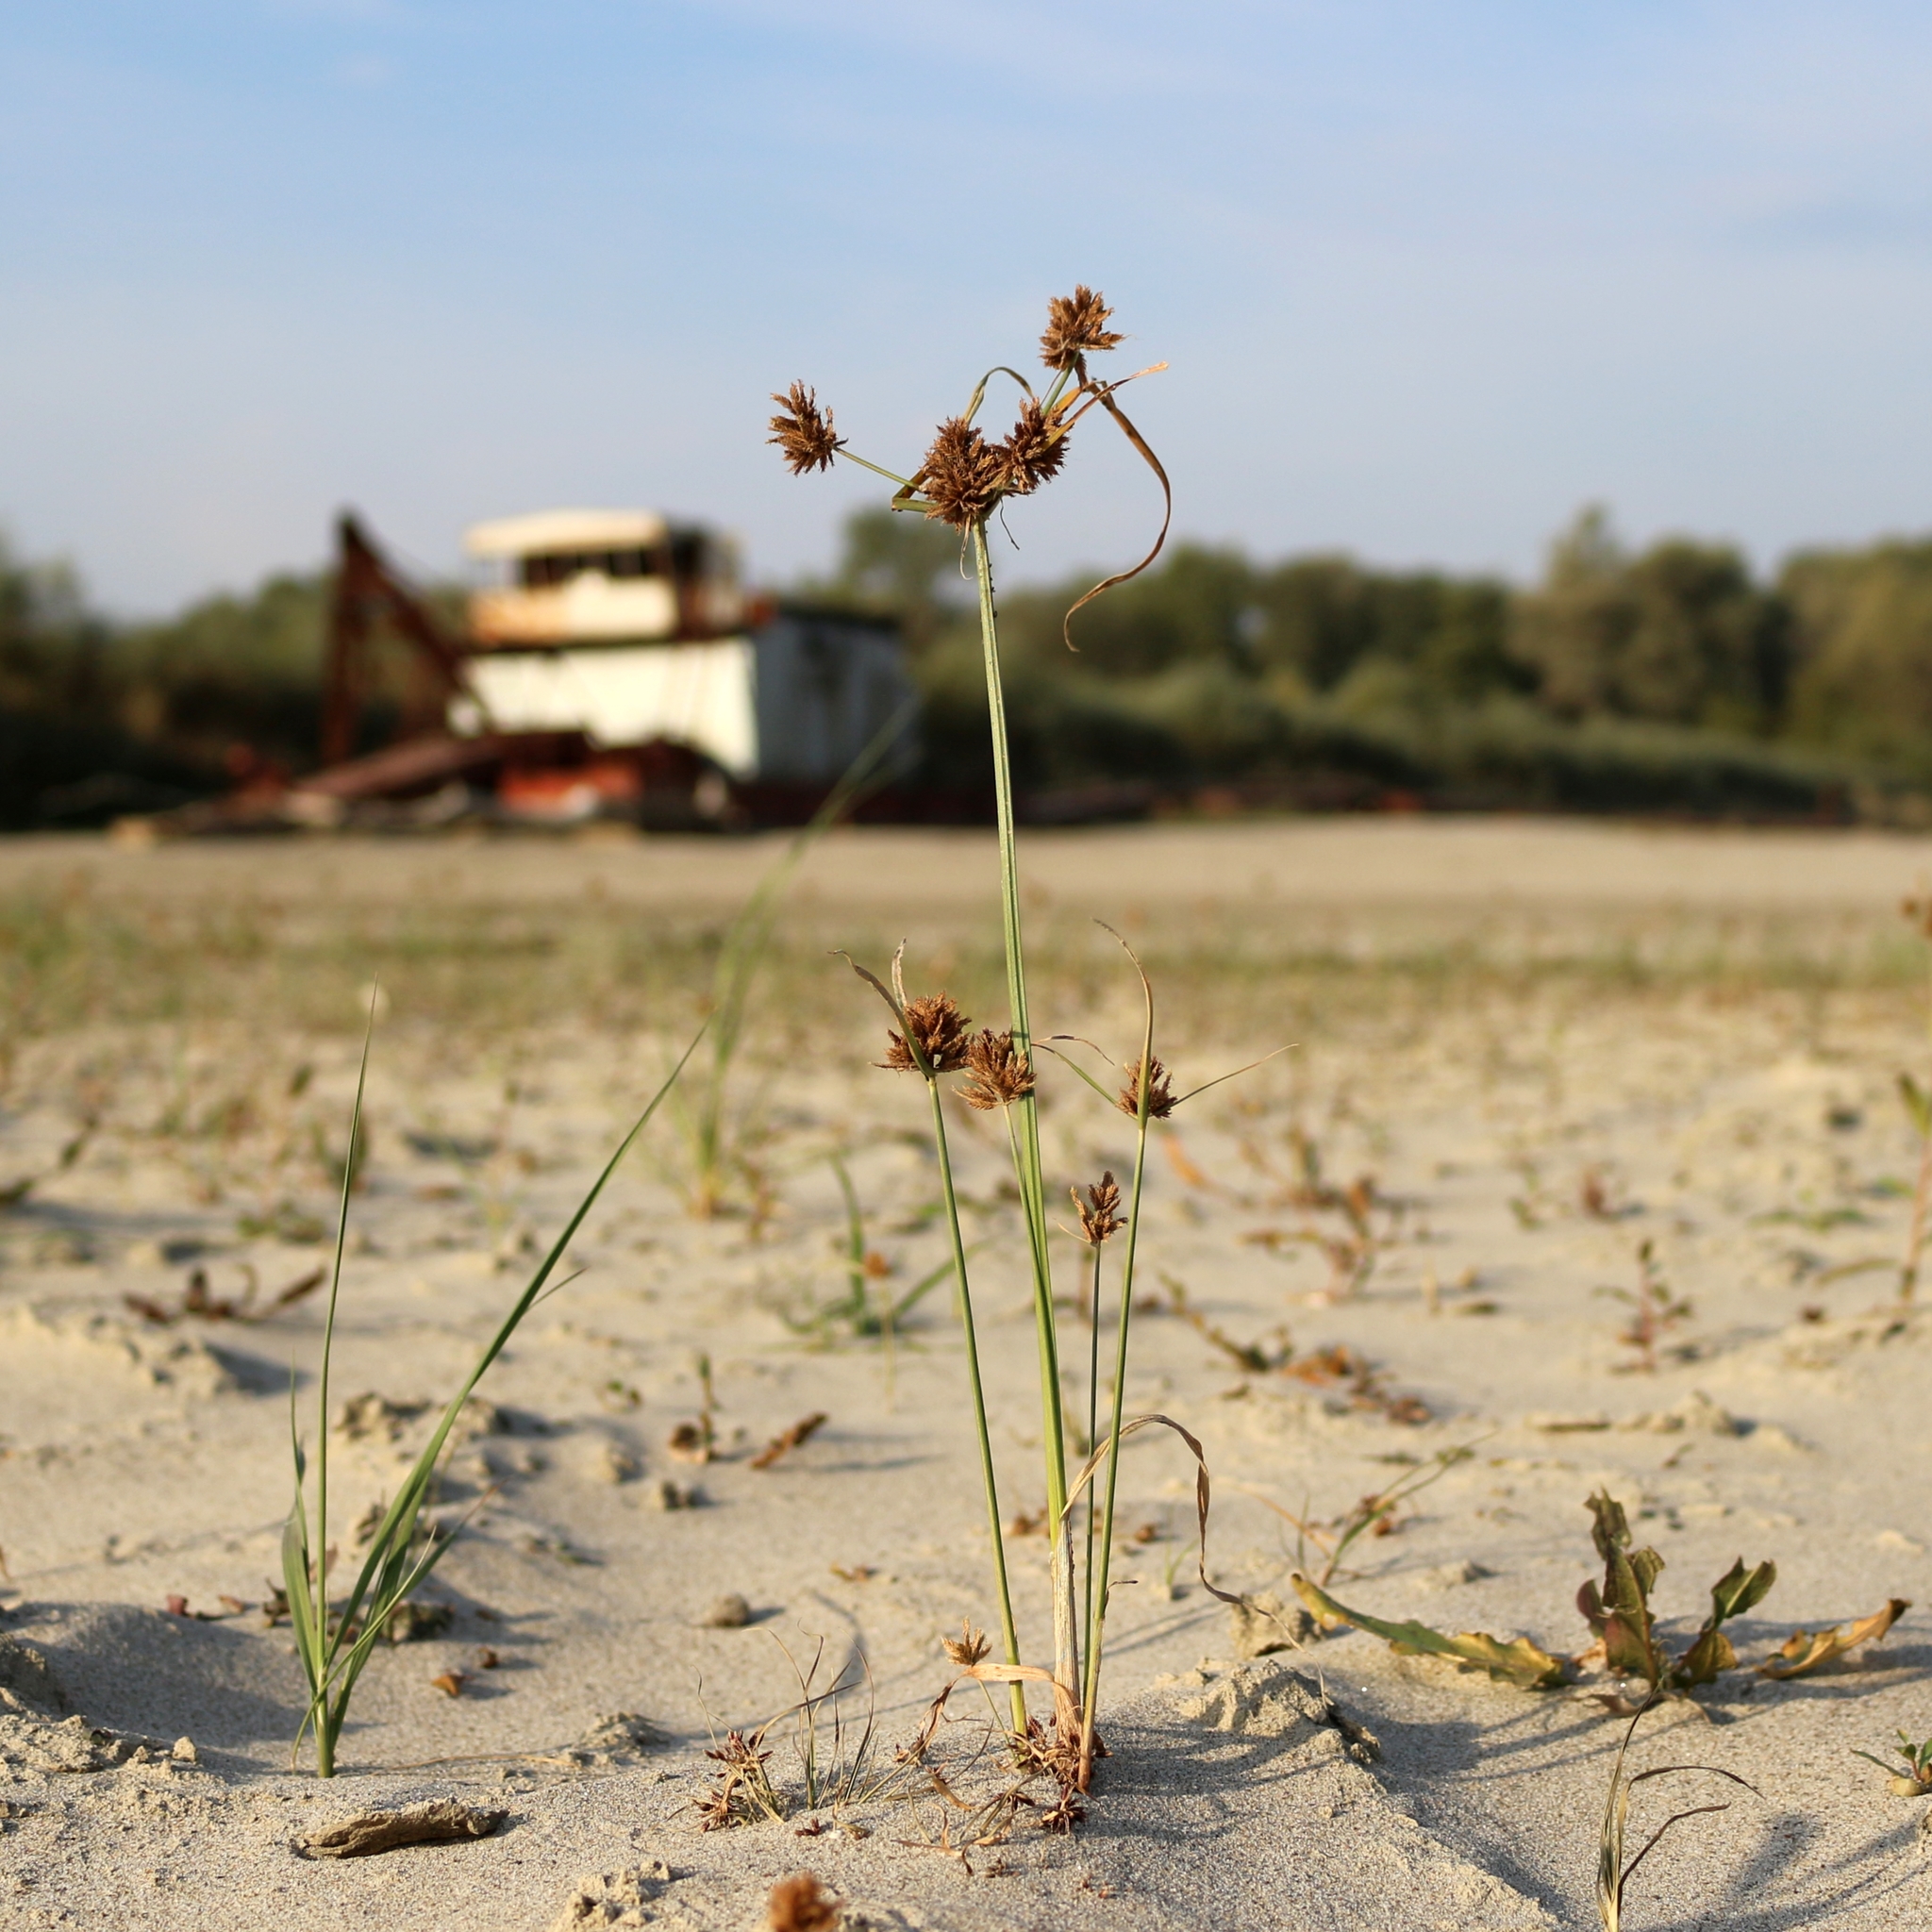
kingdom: Plantae
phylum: Tracheophyta
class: Liliopsida
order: Poales
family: Cyperaceae
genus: Cyperus
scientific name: Cyperus glomeratus
